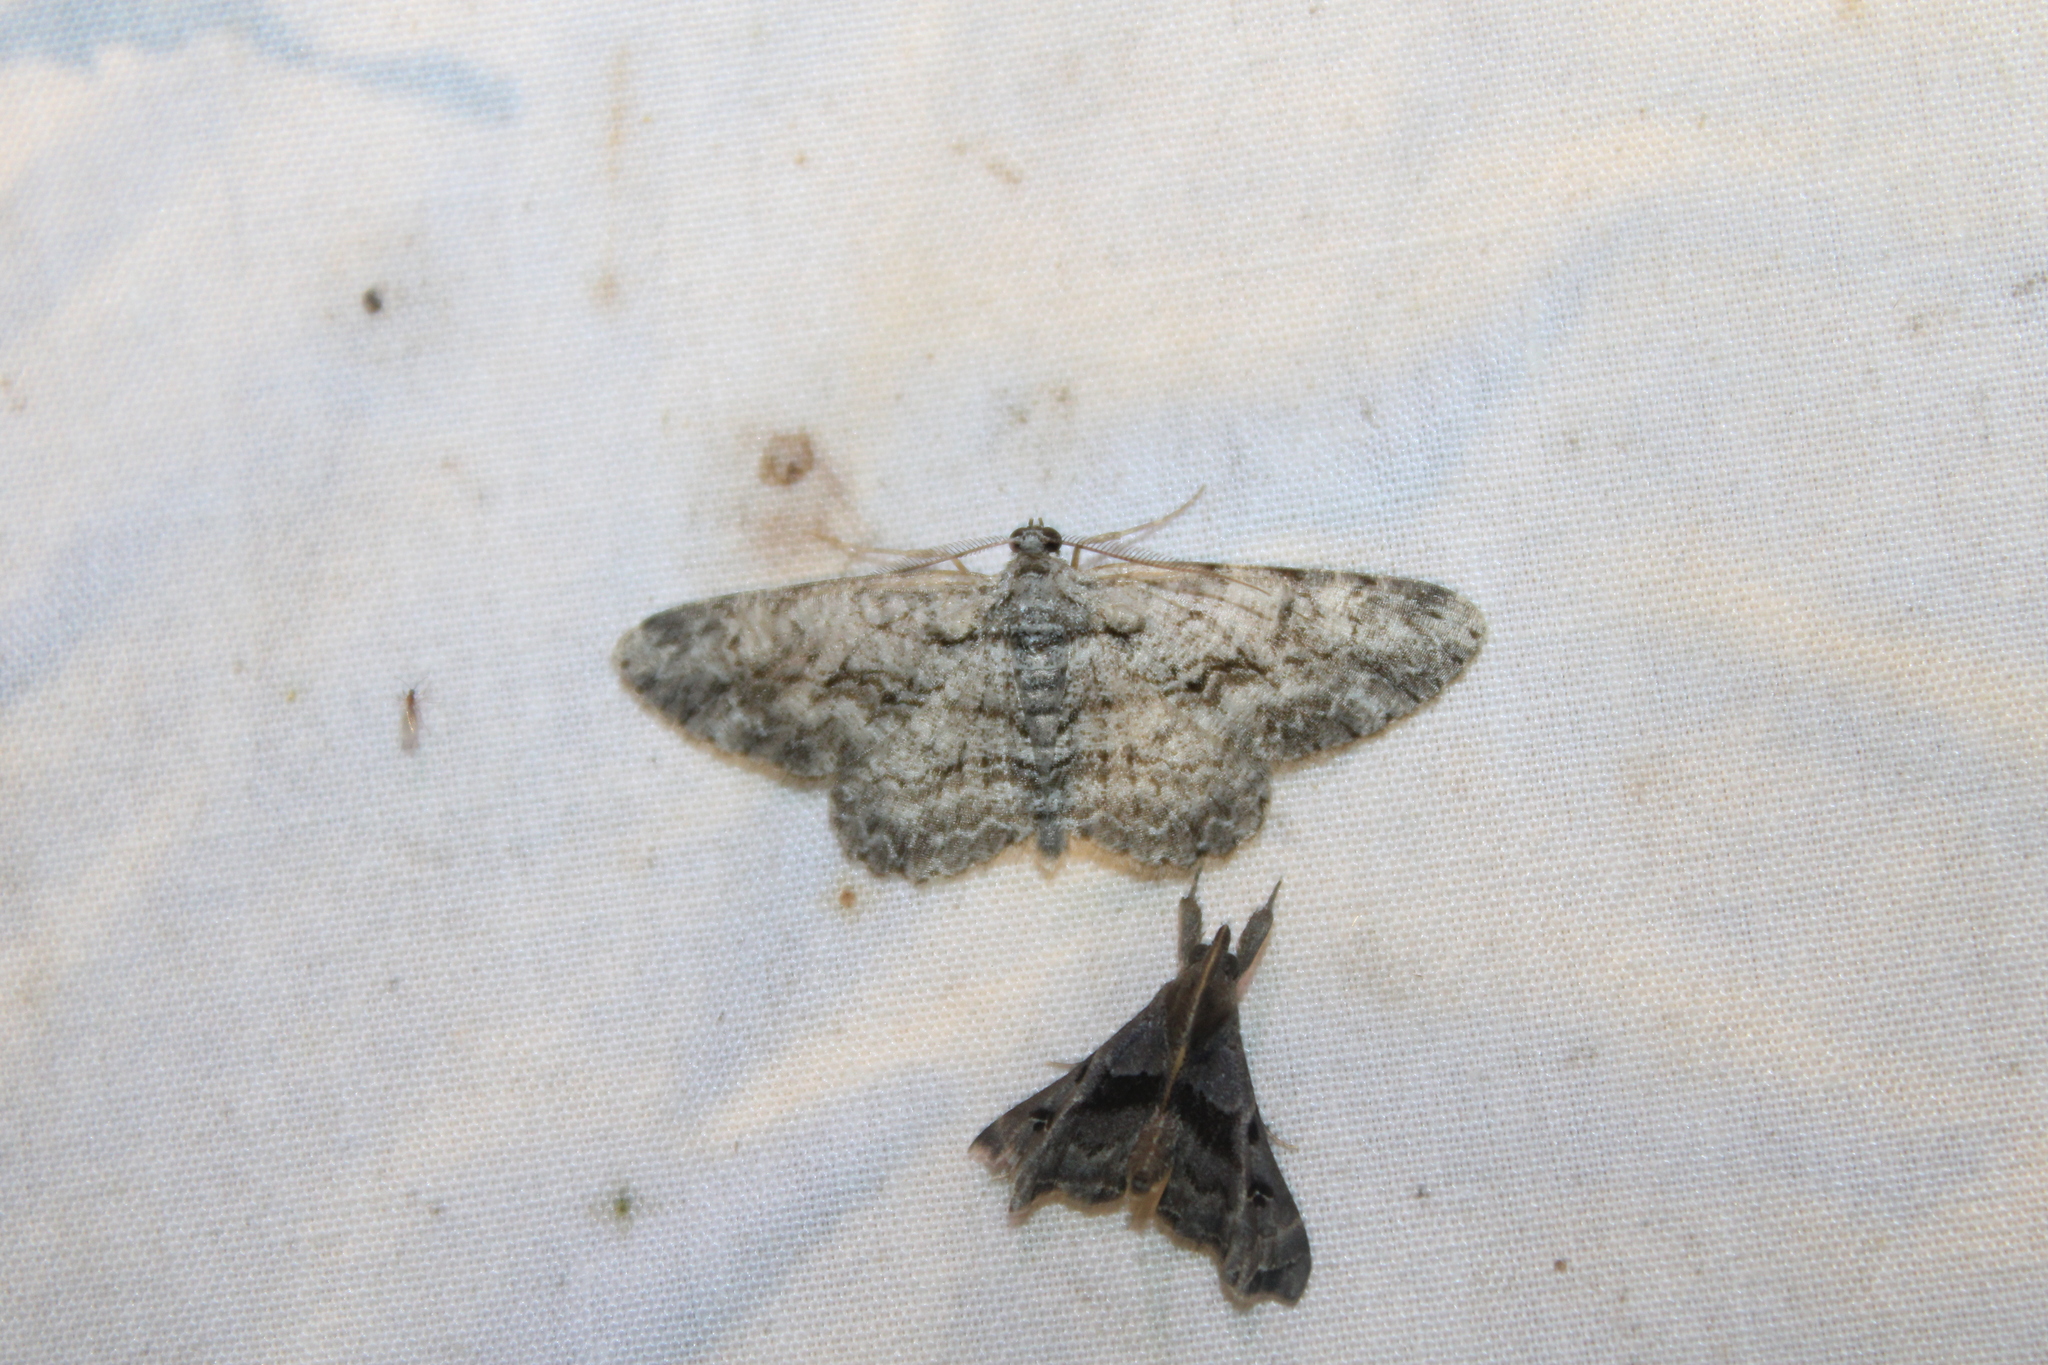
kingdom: Animalia
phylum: Arthropoda
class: Insecta
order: Lepidoptera
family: Geometridae
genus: Anavitrinella
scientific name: Anavitrinella pampinaria
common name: Common gray
